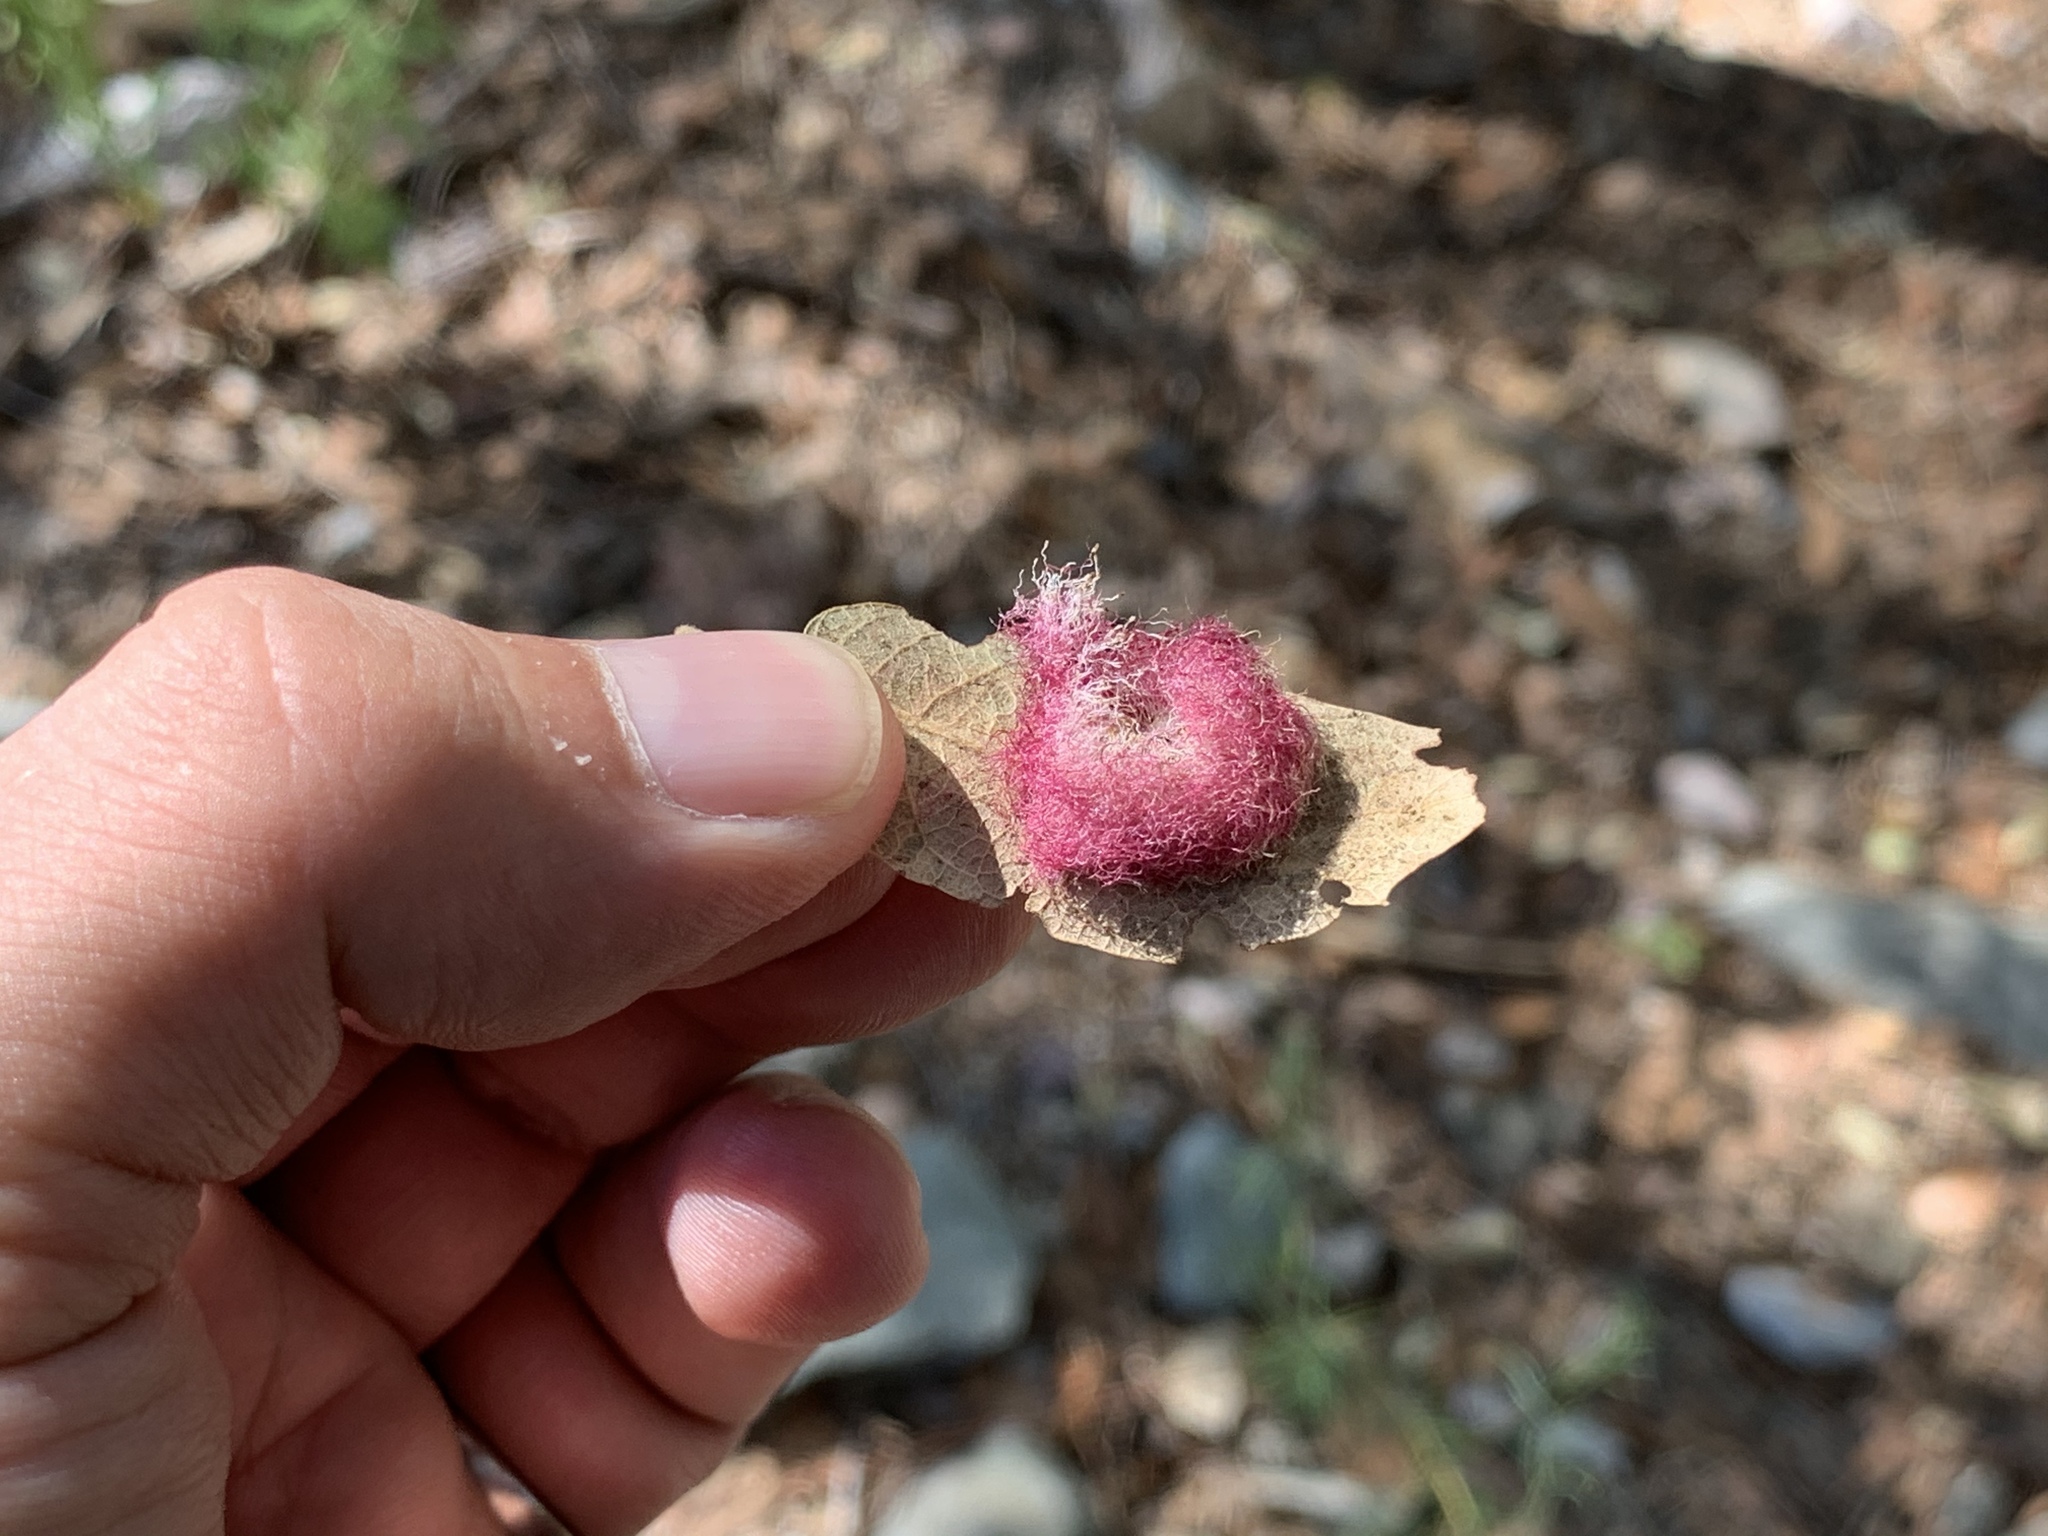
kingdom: Animalia
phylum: Arthropoda
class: Insecta
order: Hymenoptera
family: Cynipidae
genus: Cynips
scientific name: Cynips
